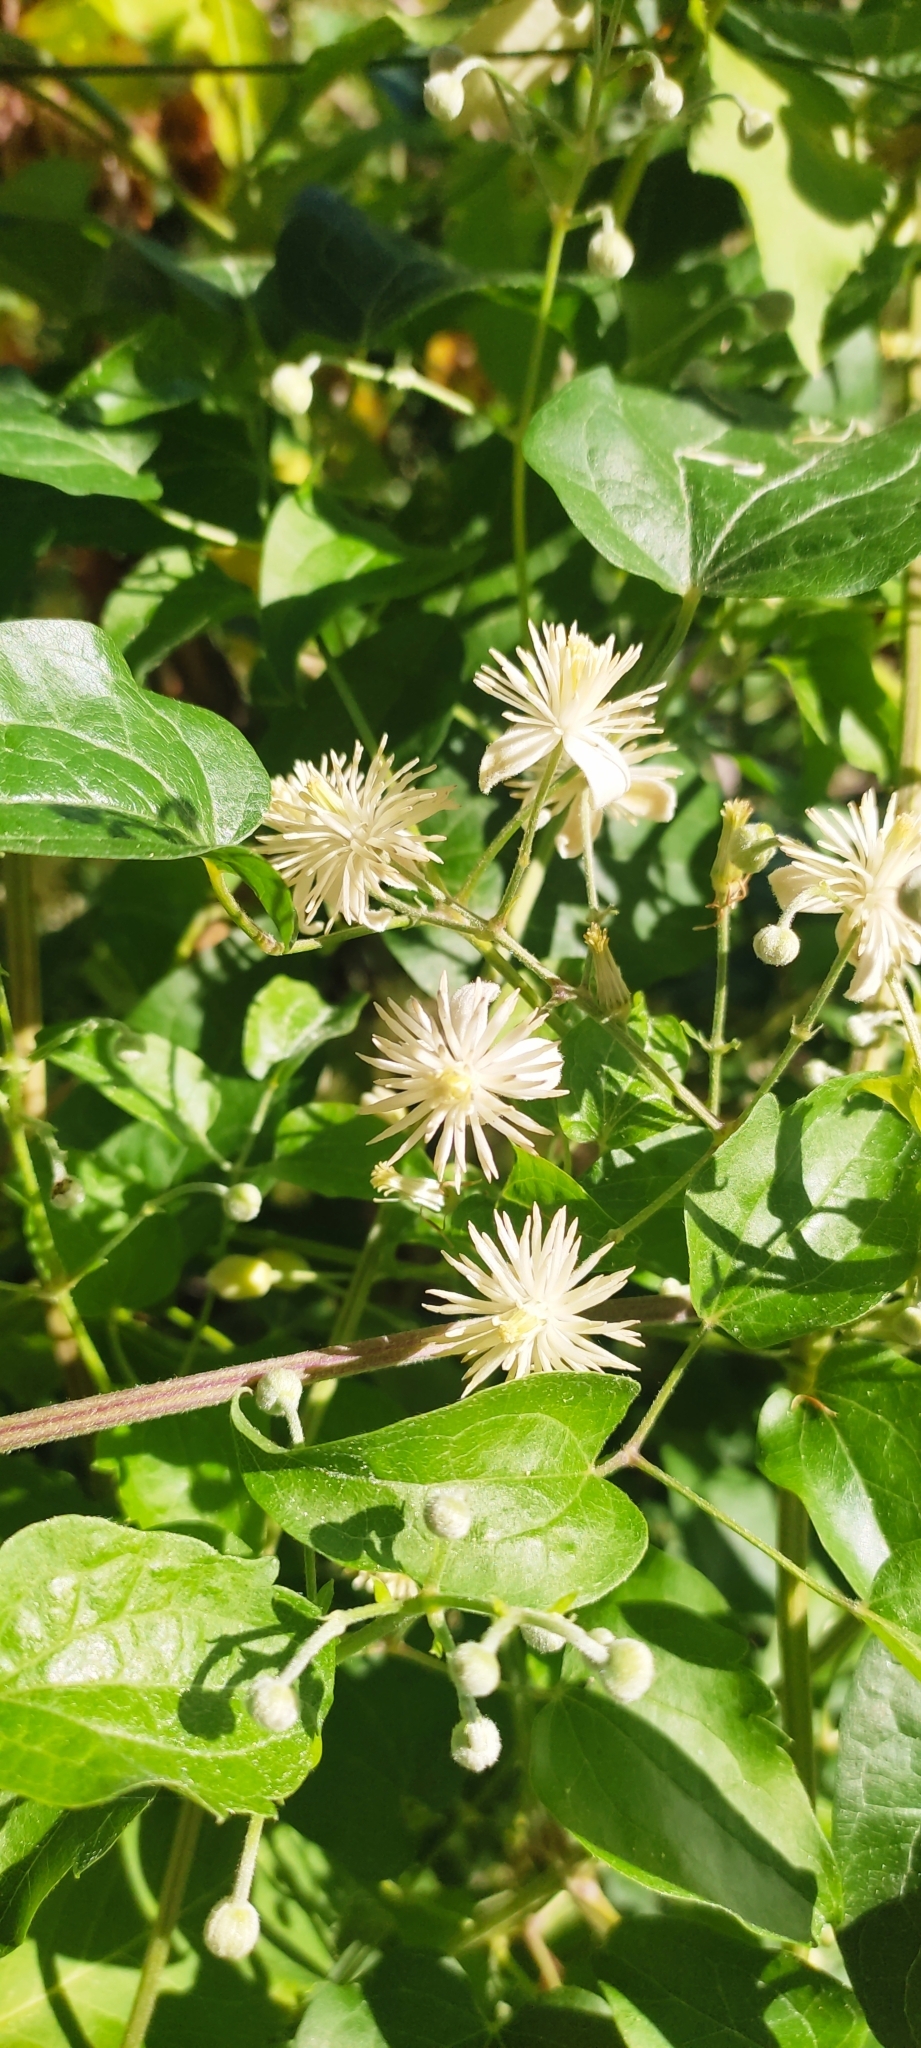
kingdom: Plantae
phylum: Tracheophyta
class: Magnoliopsida
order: Ranunculales
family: Ranunculaceae
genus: Clematis
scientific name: Clematis vitalba
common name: Evergreen clematis
